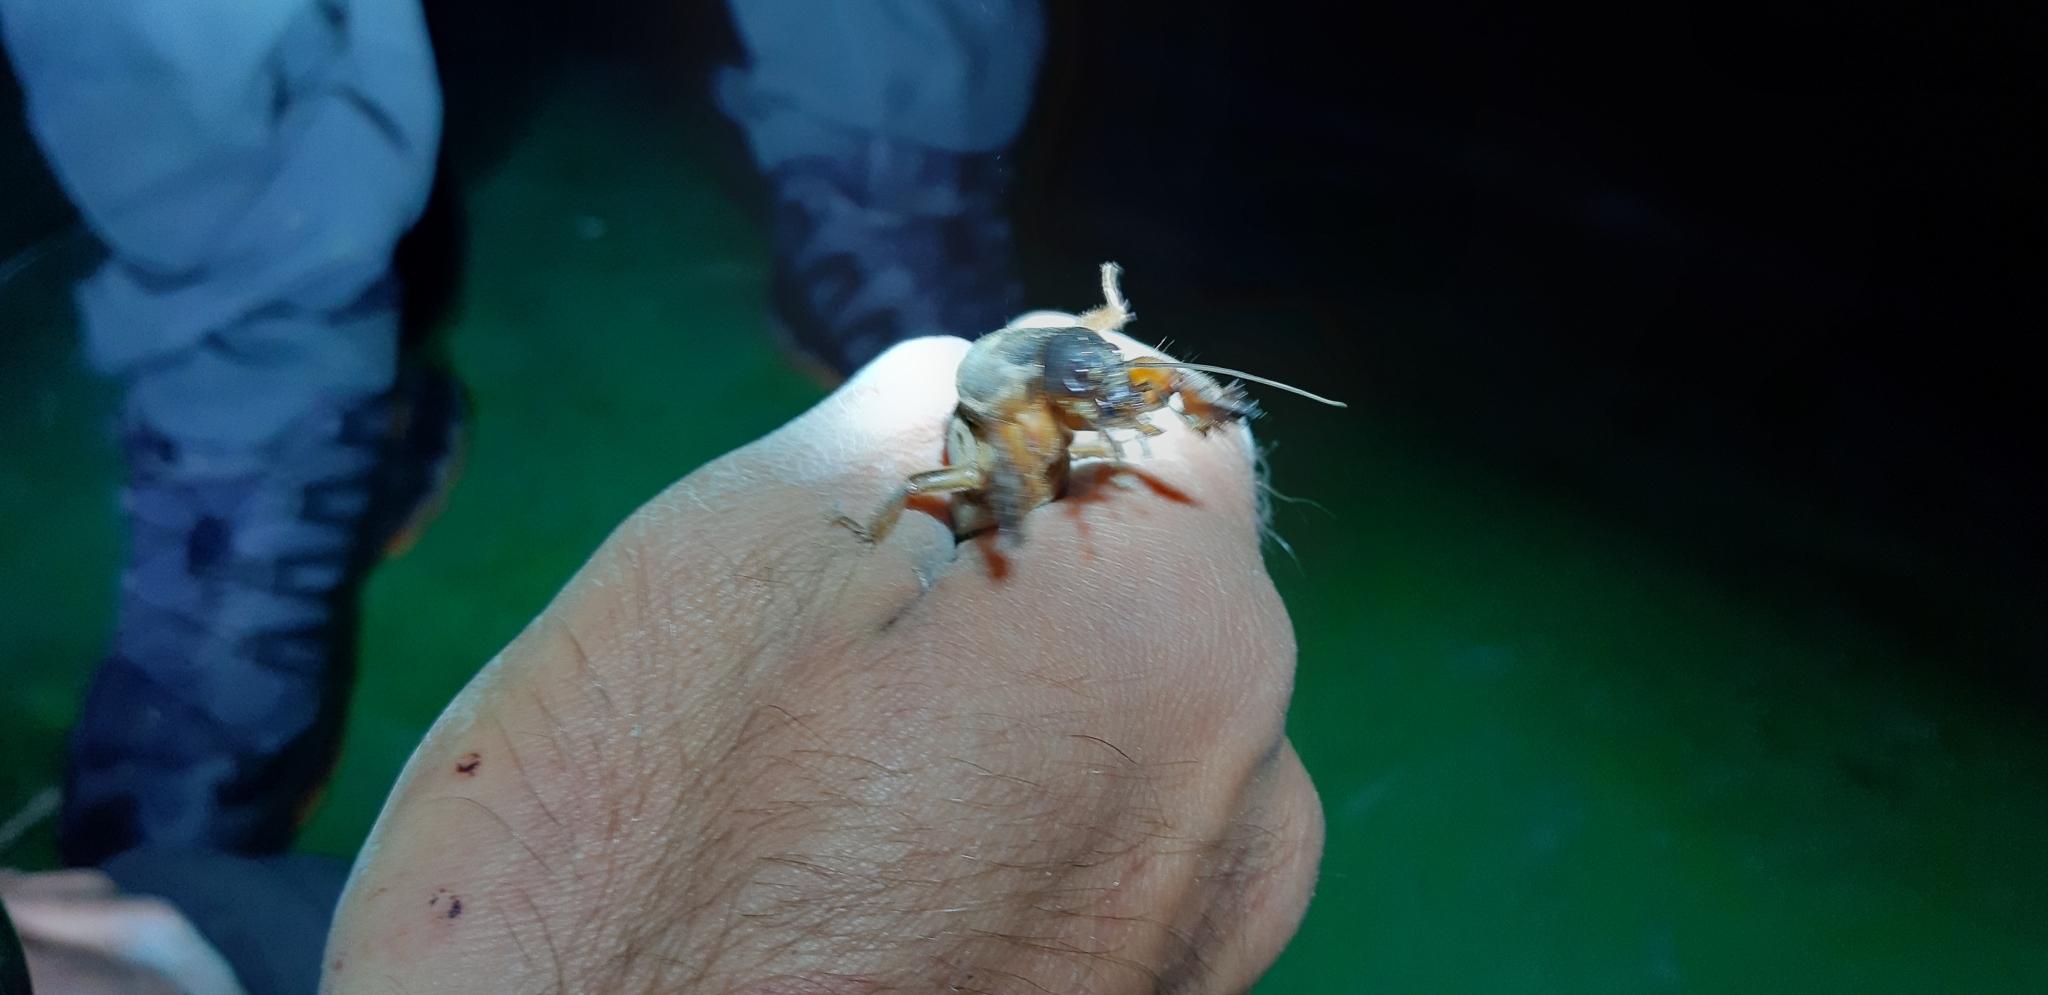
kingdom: Animalia
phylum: Arthropoda
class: Insecta
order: Orthoptera
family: Gryllotalpidae
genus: Gryllotalpa
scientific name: Gryllotalpa gryllotalpa
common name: European mole cricket
